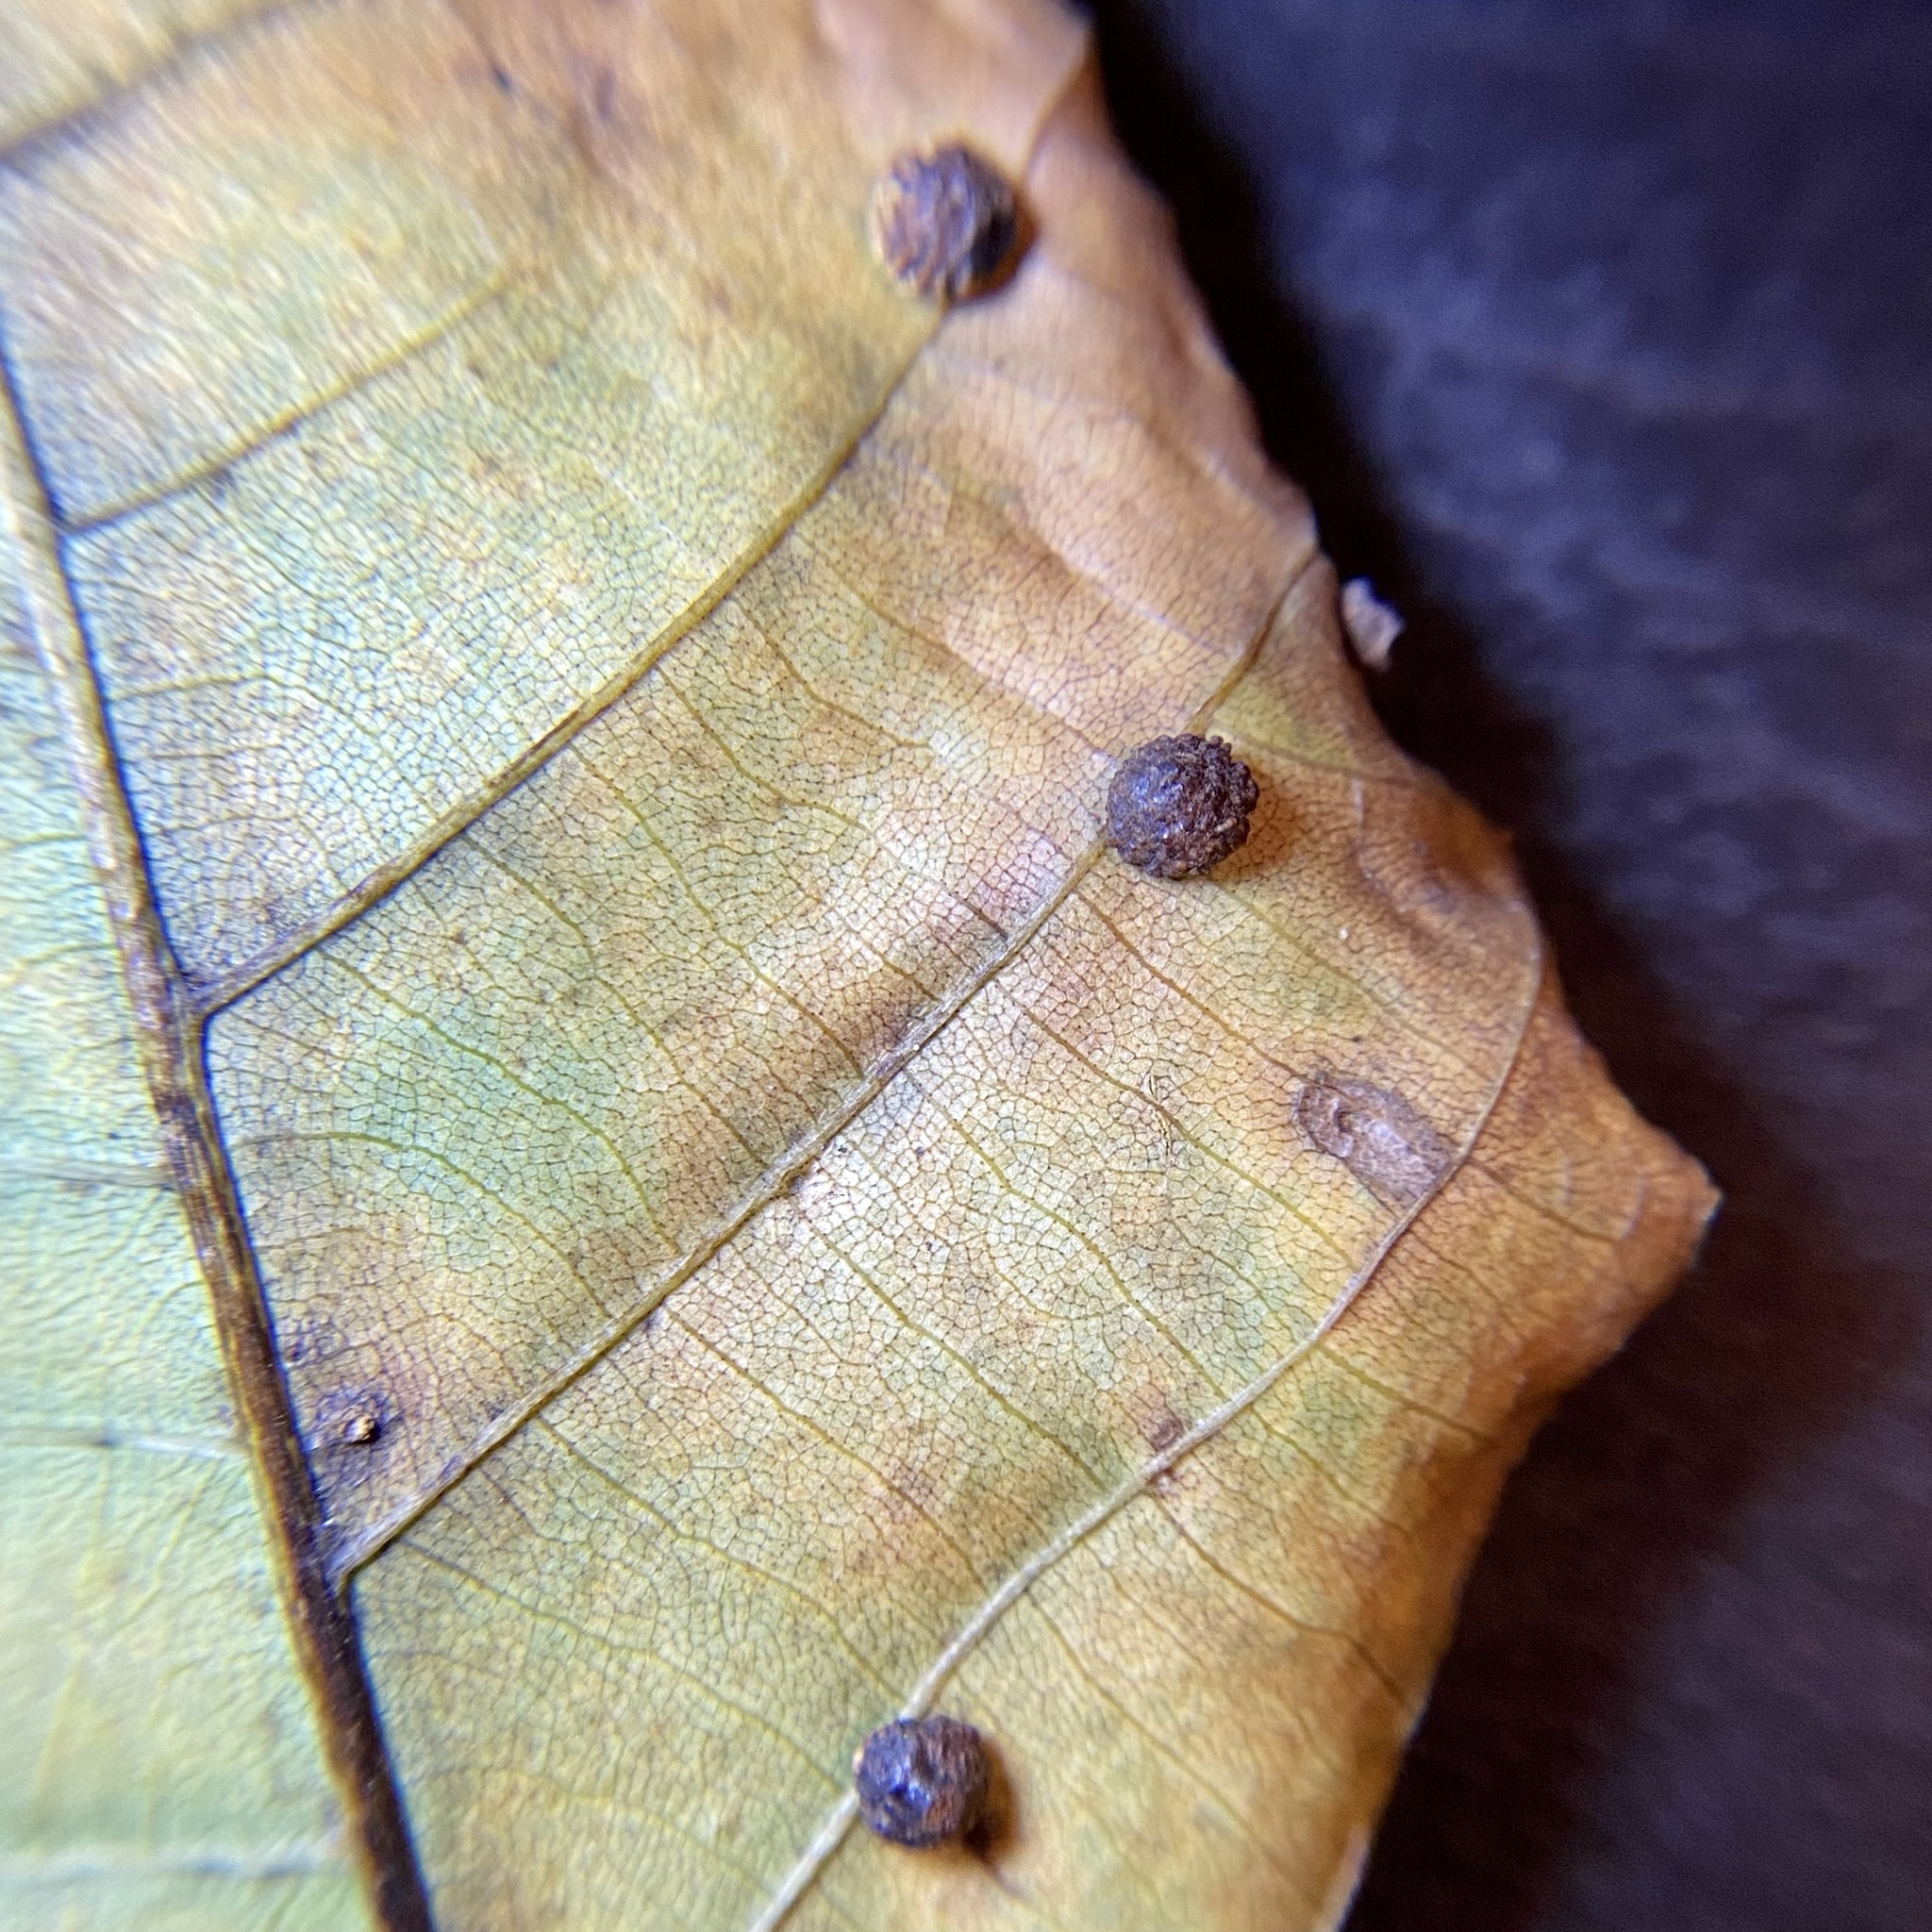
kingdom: Animalia
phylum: Arthropoda
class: Insecta
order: Diptera
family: Cecidomyiidae
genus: Caryomyia
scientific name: Caryomyia glebosa
